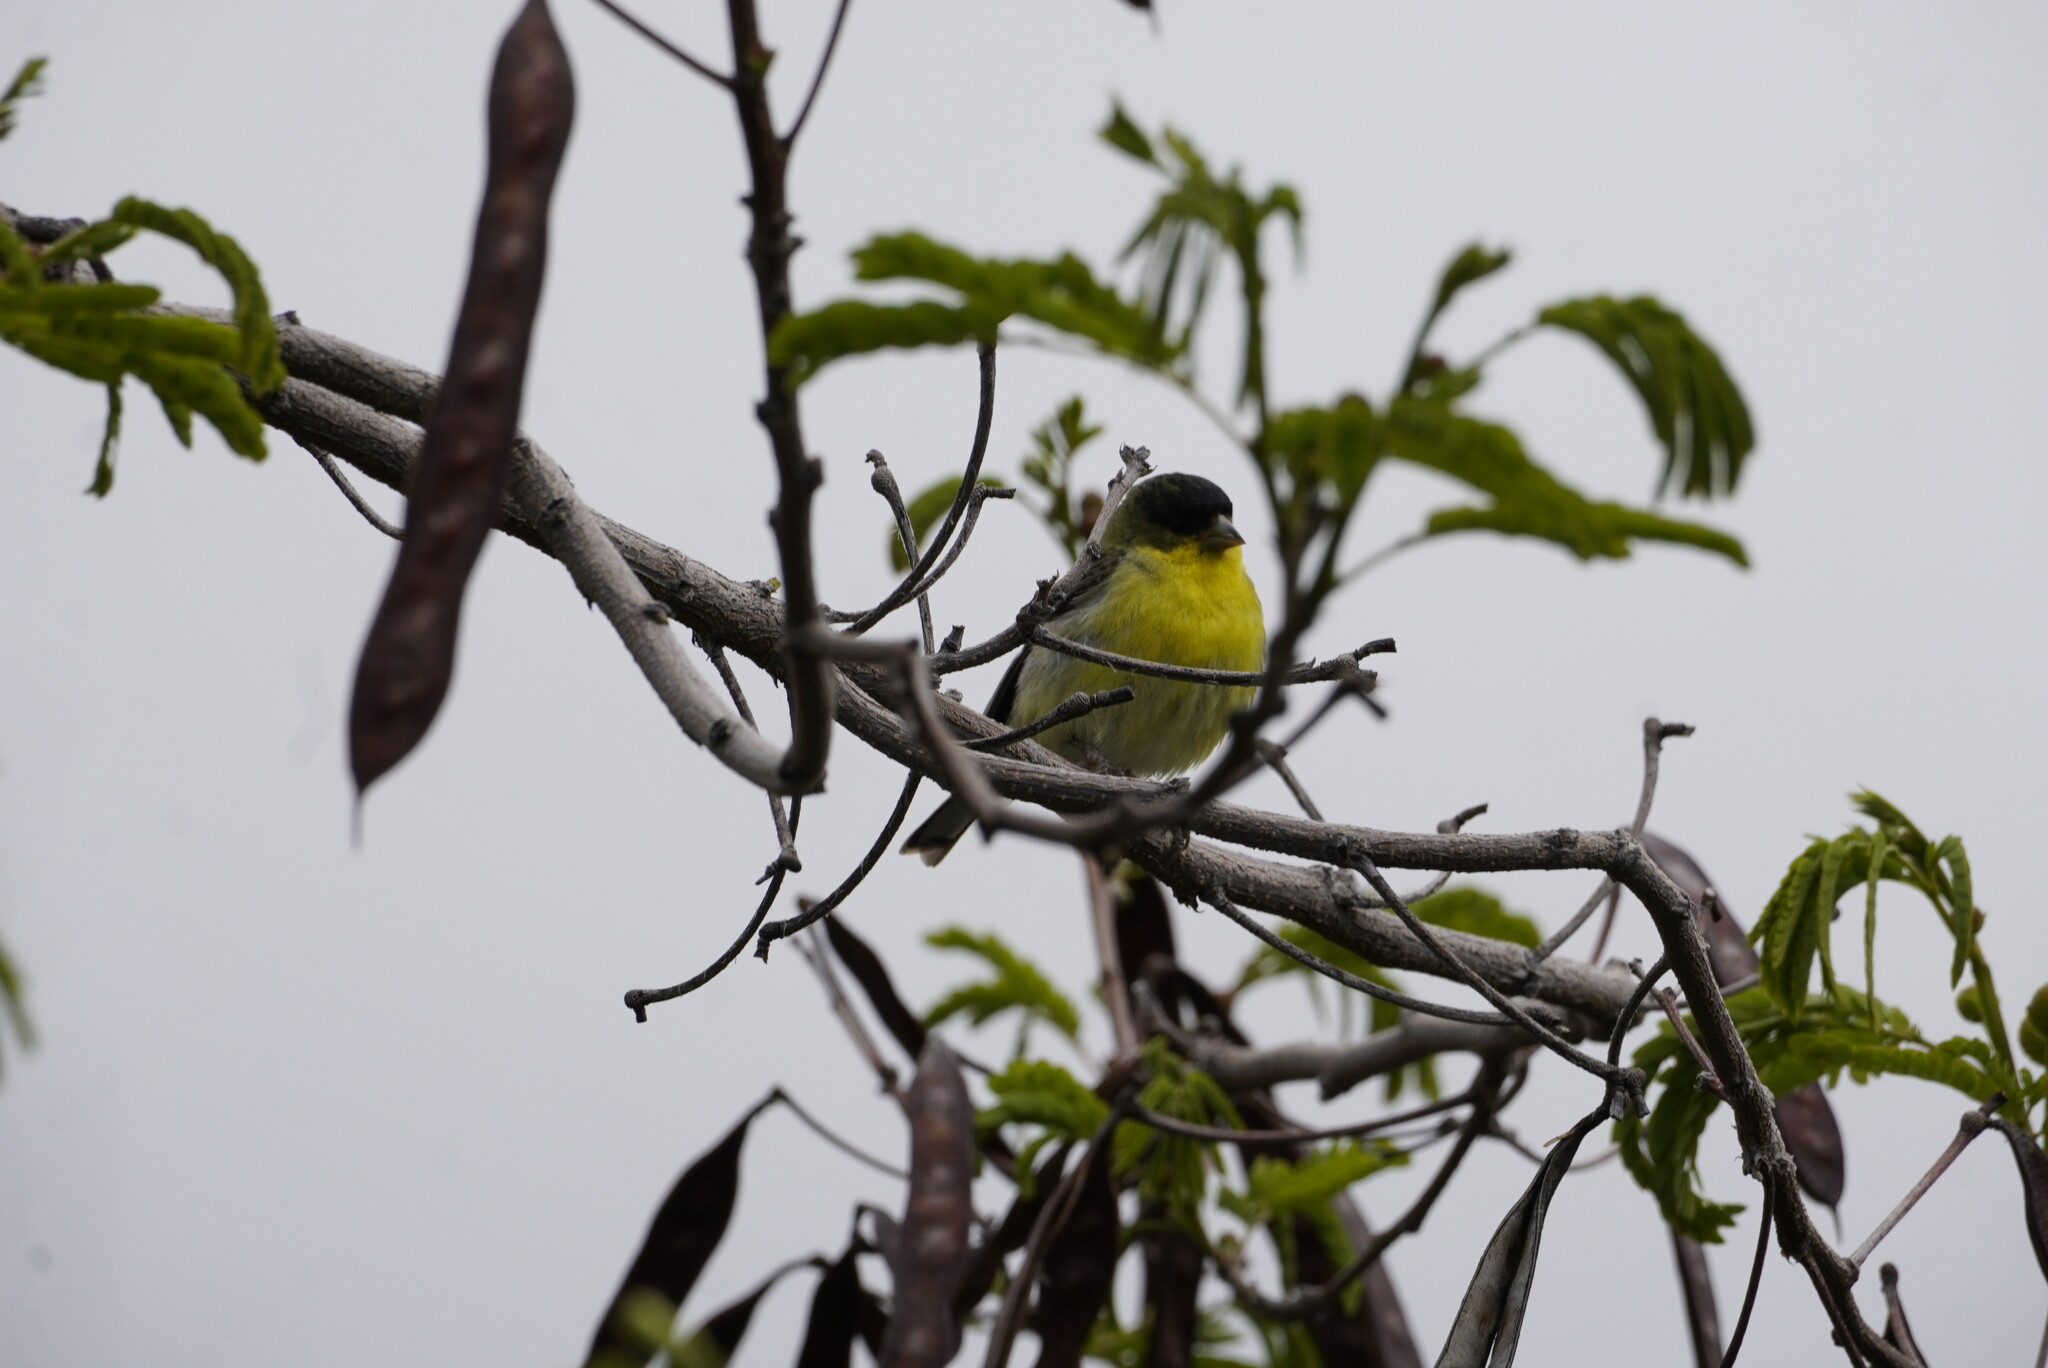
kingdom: Animalia
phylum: Chordata
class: Aves
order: Passeriformes
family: Fringillidae
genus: Spinus
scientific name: Spinus psaltria
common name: Lesser goldfinch
